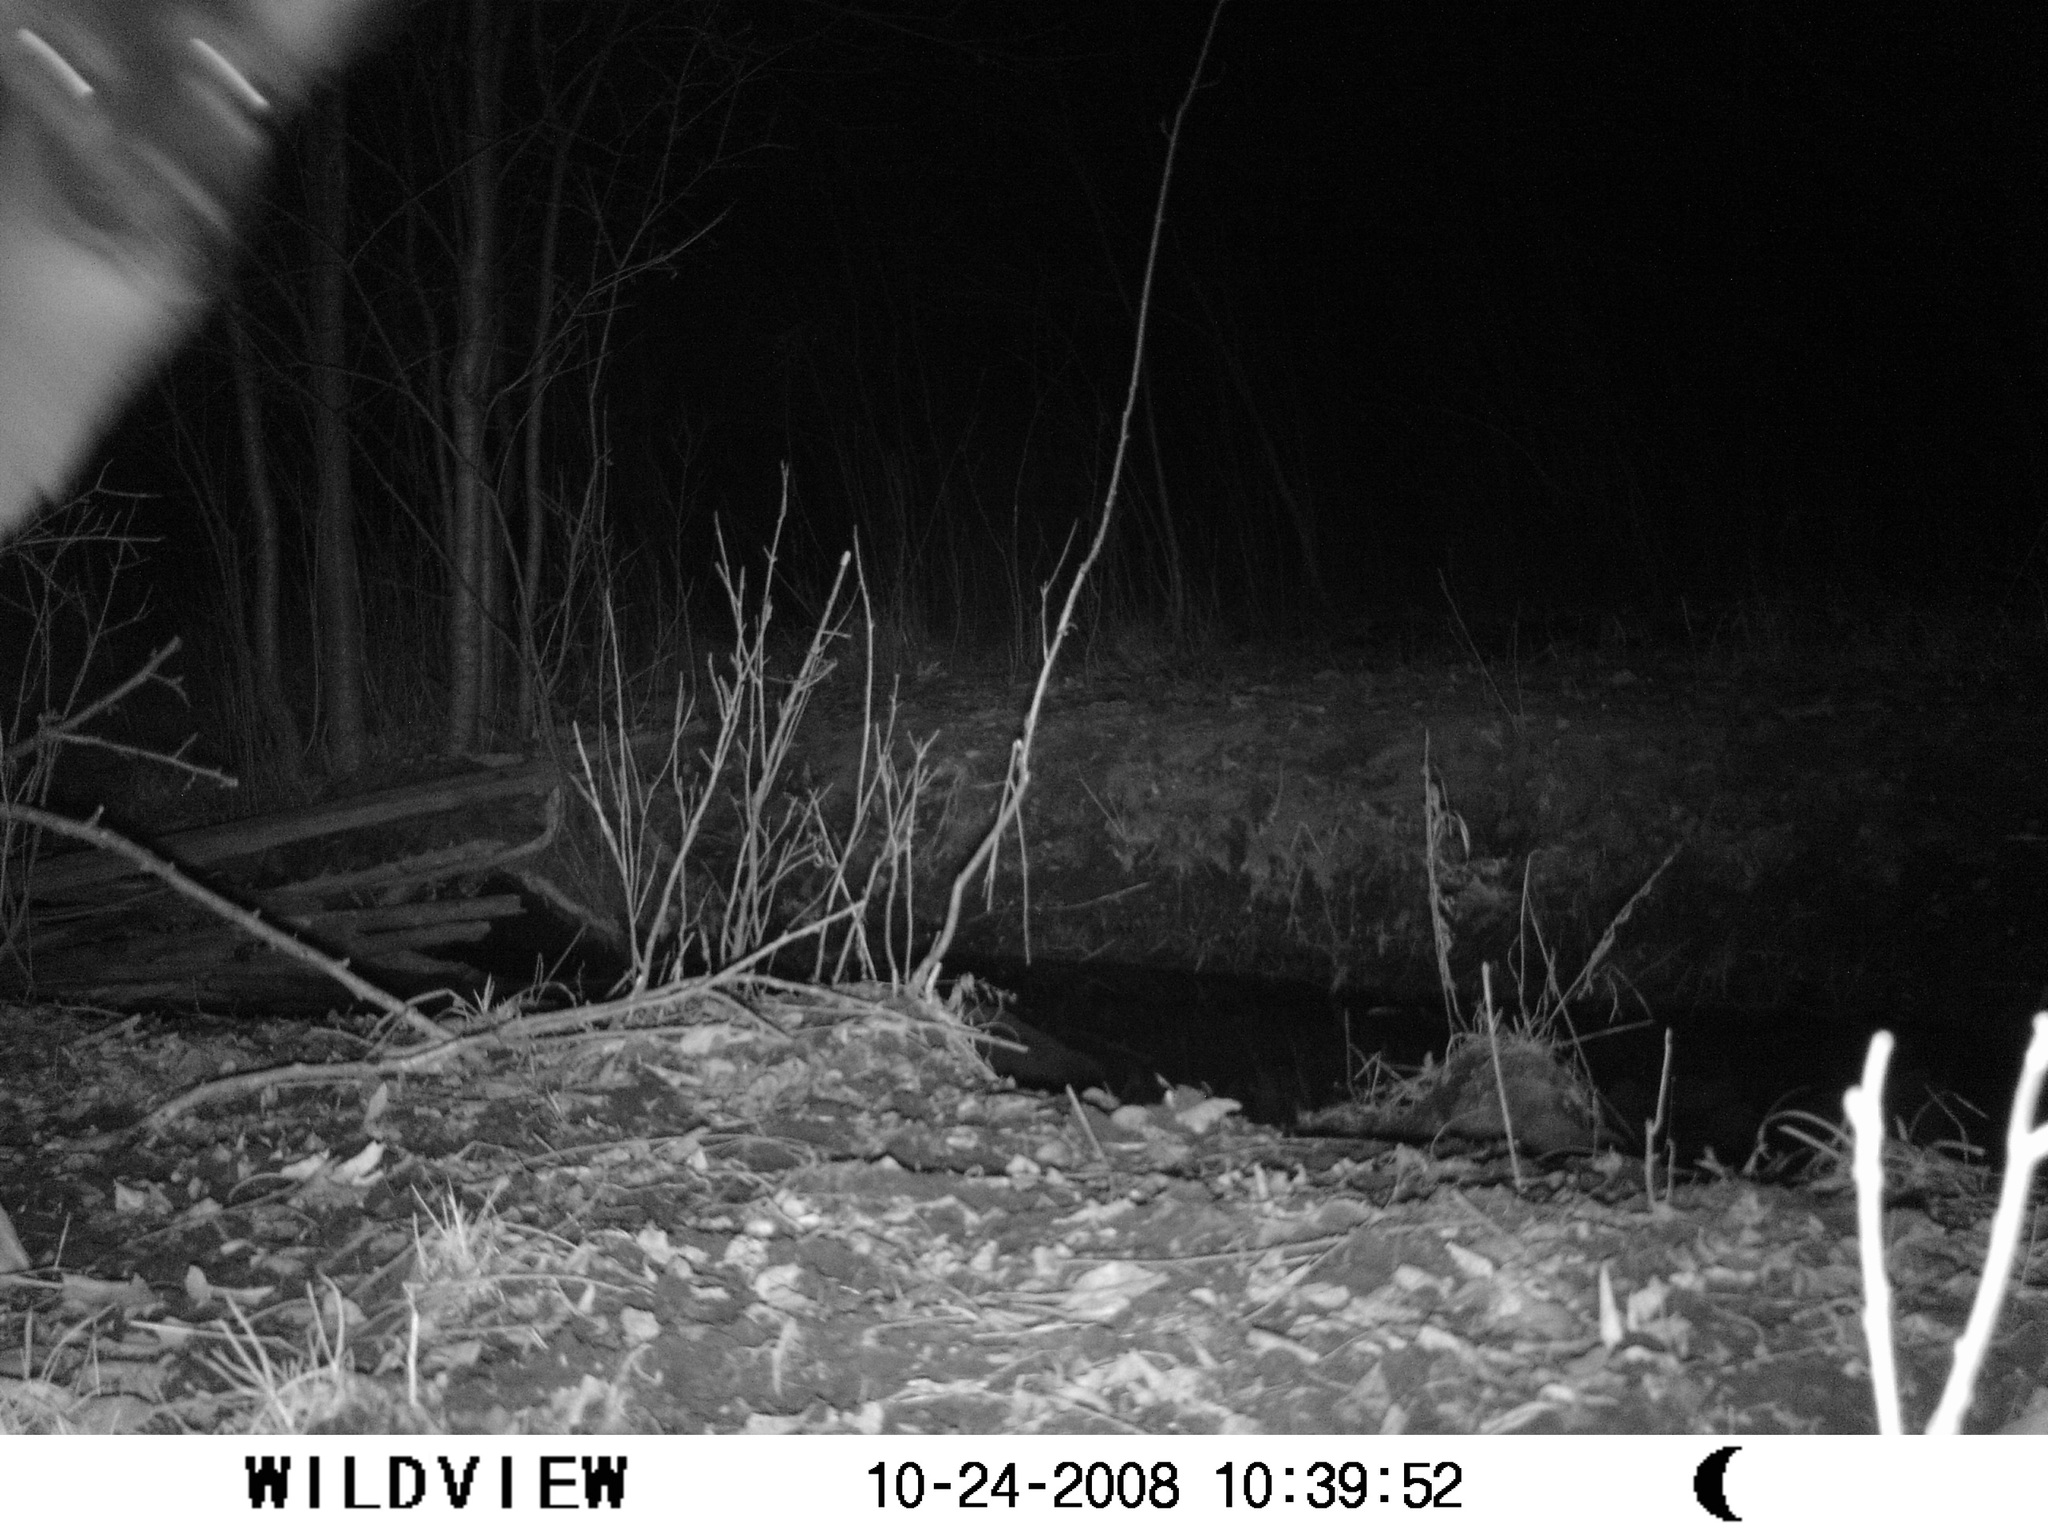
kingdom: Animalia
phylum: Chordata
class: Mammalia
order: Artiodactyla
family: Cervidae
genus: Odocoileus
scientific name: Odocoileus virginianus
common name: White-tailed deer
